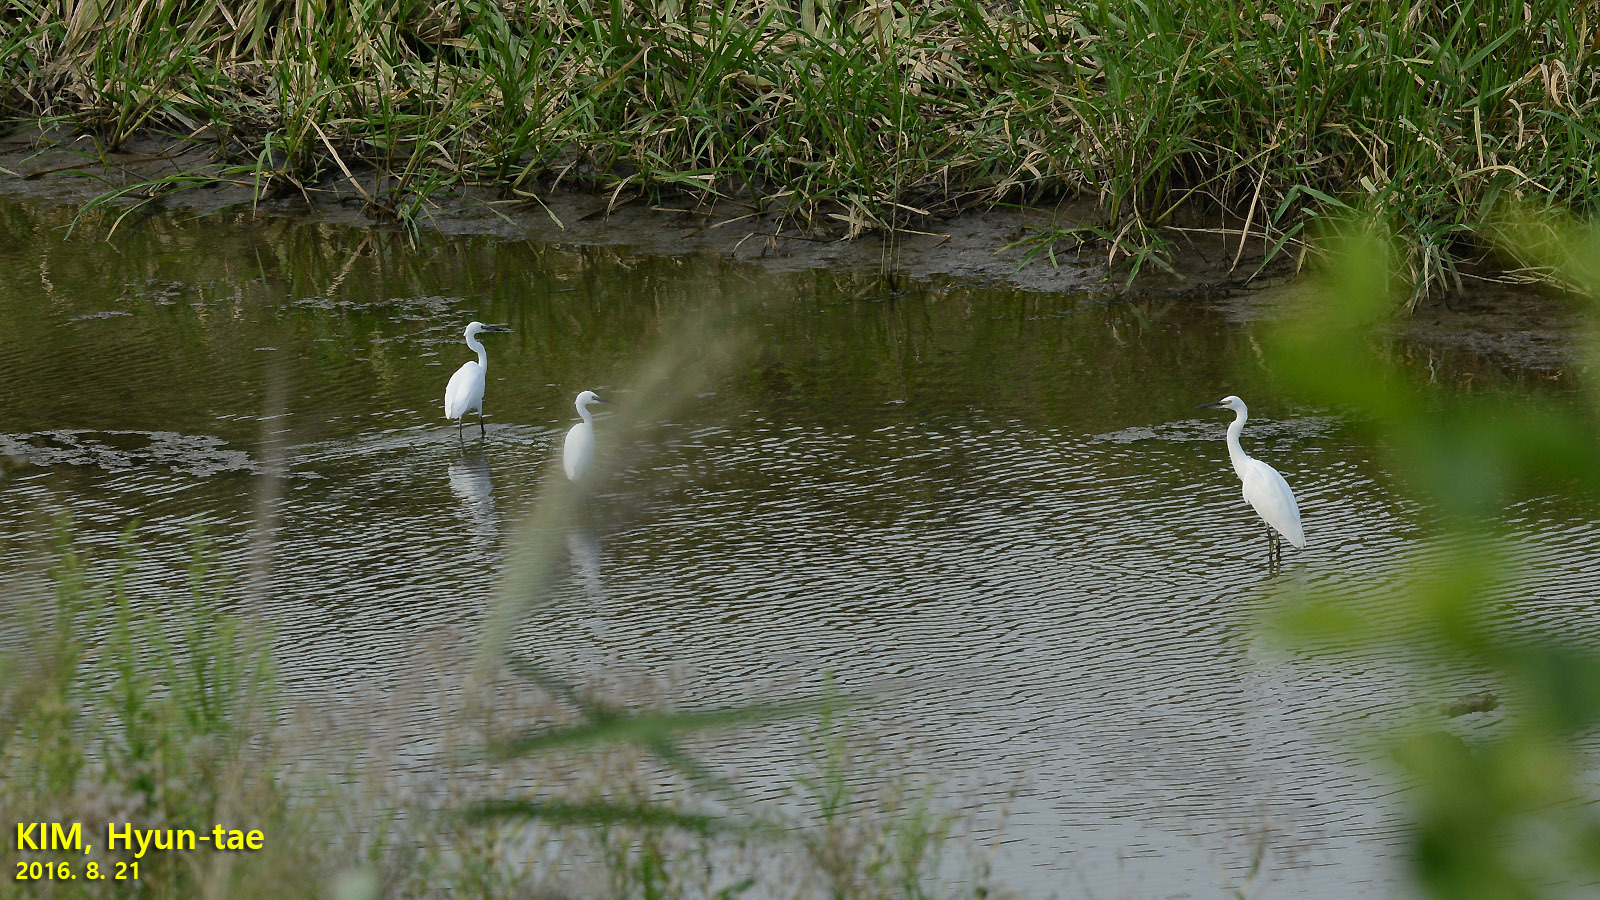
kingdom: Animalia
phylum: Chordata
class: Aves
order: Pelecaniformes
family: Ardeidae
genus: Egretta
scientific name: Egretta garzetta
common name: Little egret
